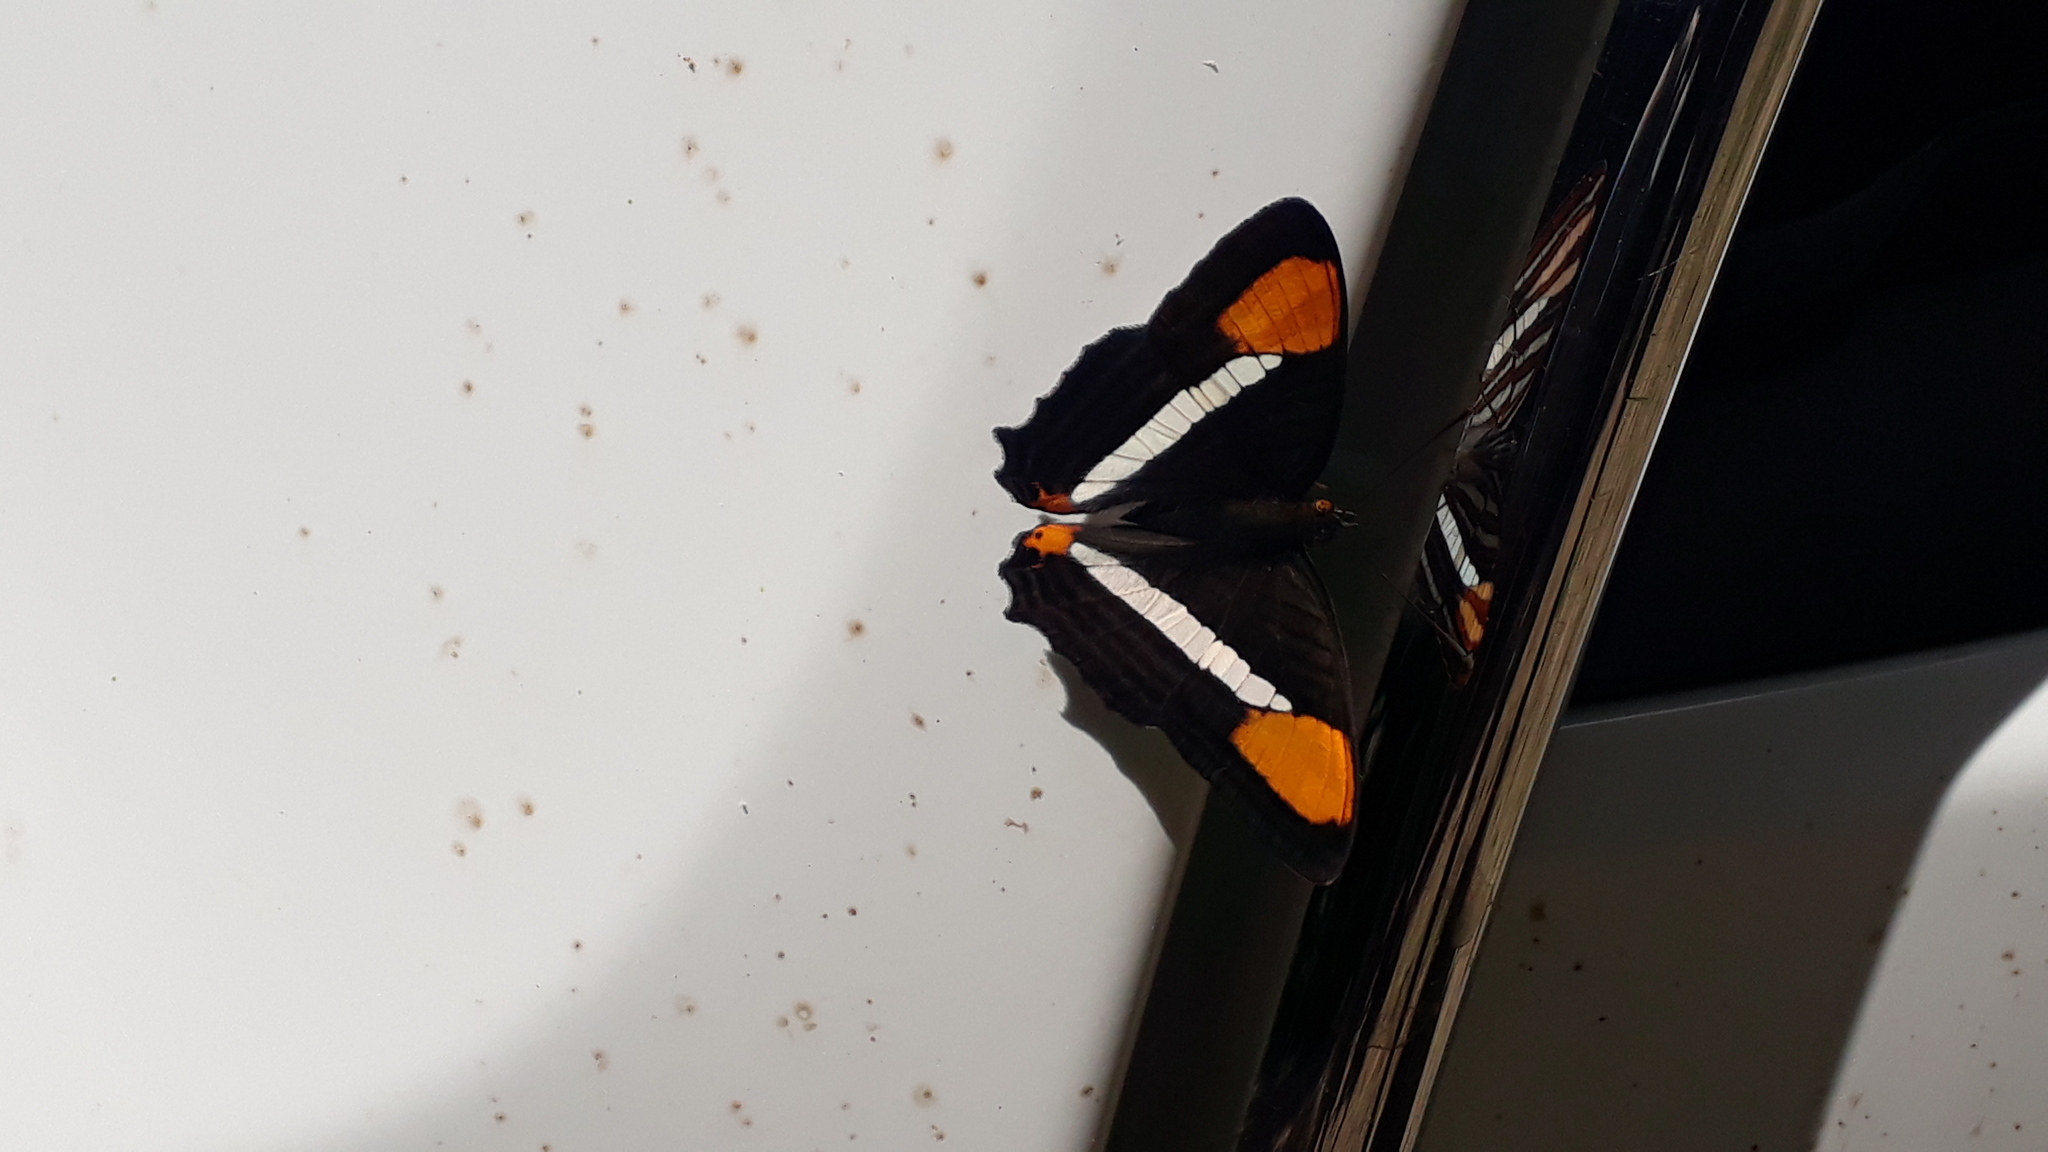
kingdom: Animalia
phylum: Arthropoda
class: Insecta
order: Lepidoptera
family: Nymphalidae
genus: Limenitis
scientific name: Limenitis syma
